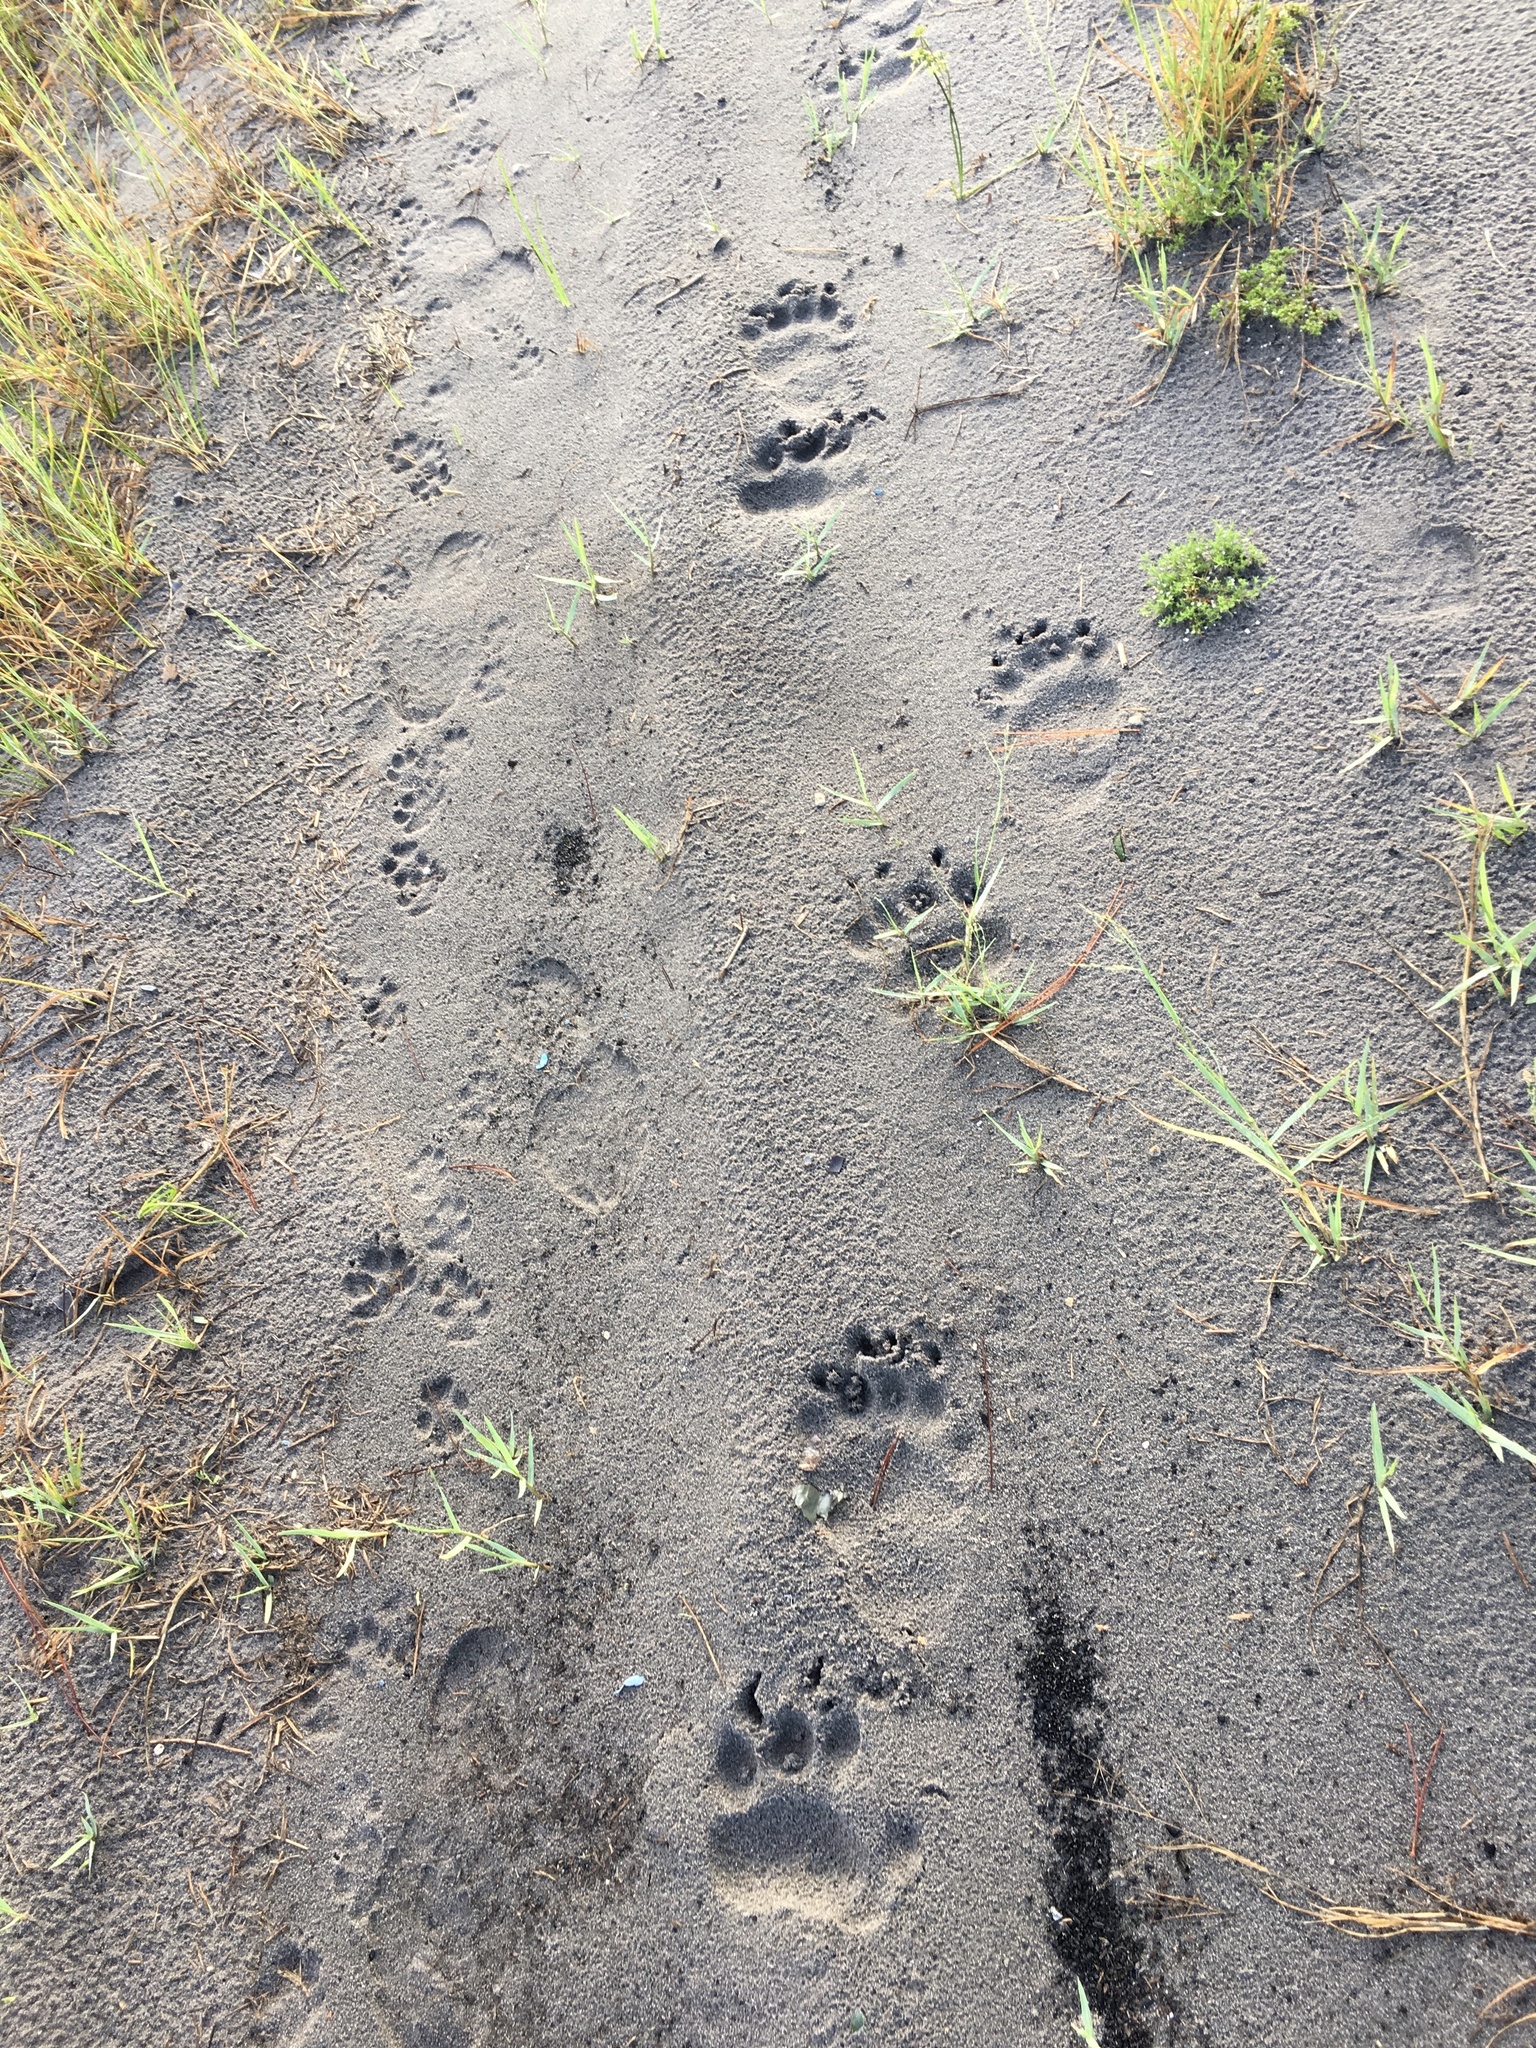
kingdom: Animalia
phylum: Chordata
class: Mammalia
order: Carnivora
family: Ursidae
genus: Ursus
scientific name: Ursus americanus
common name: American black bear
